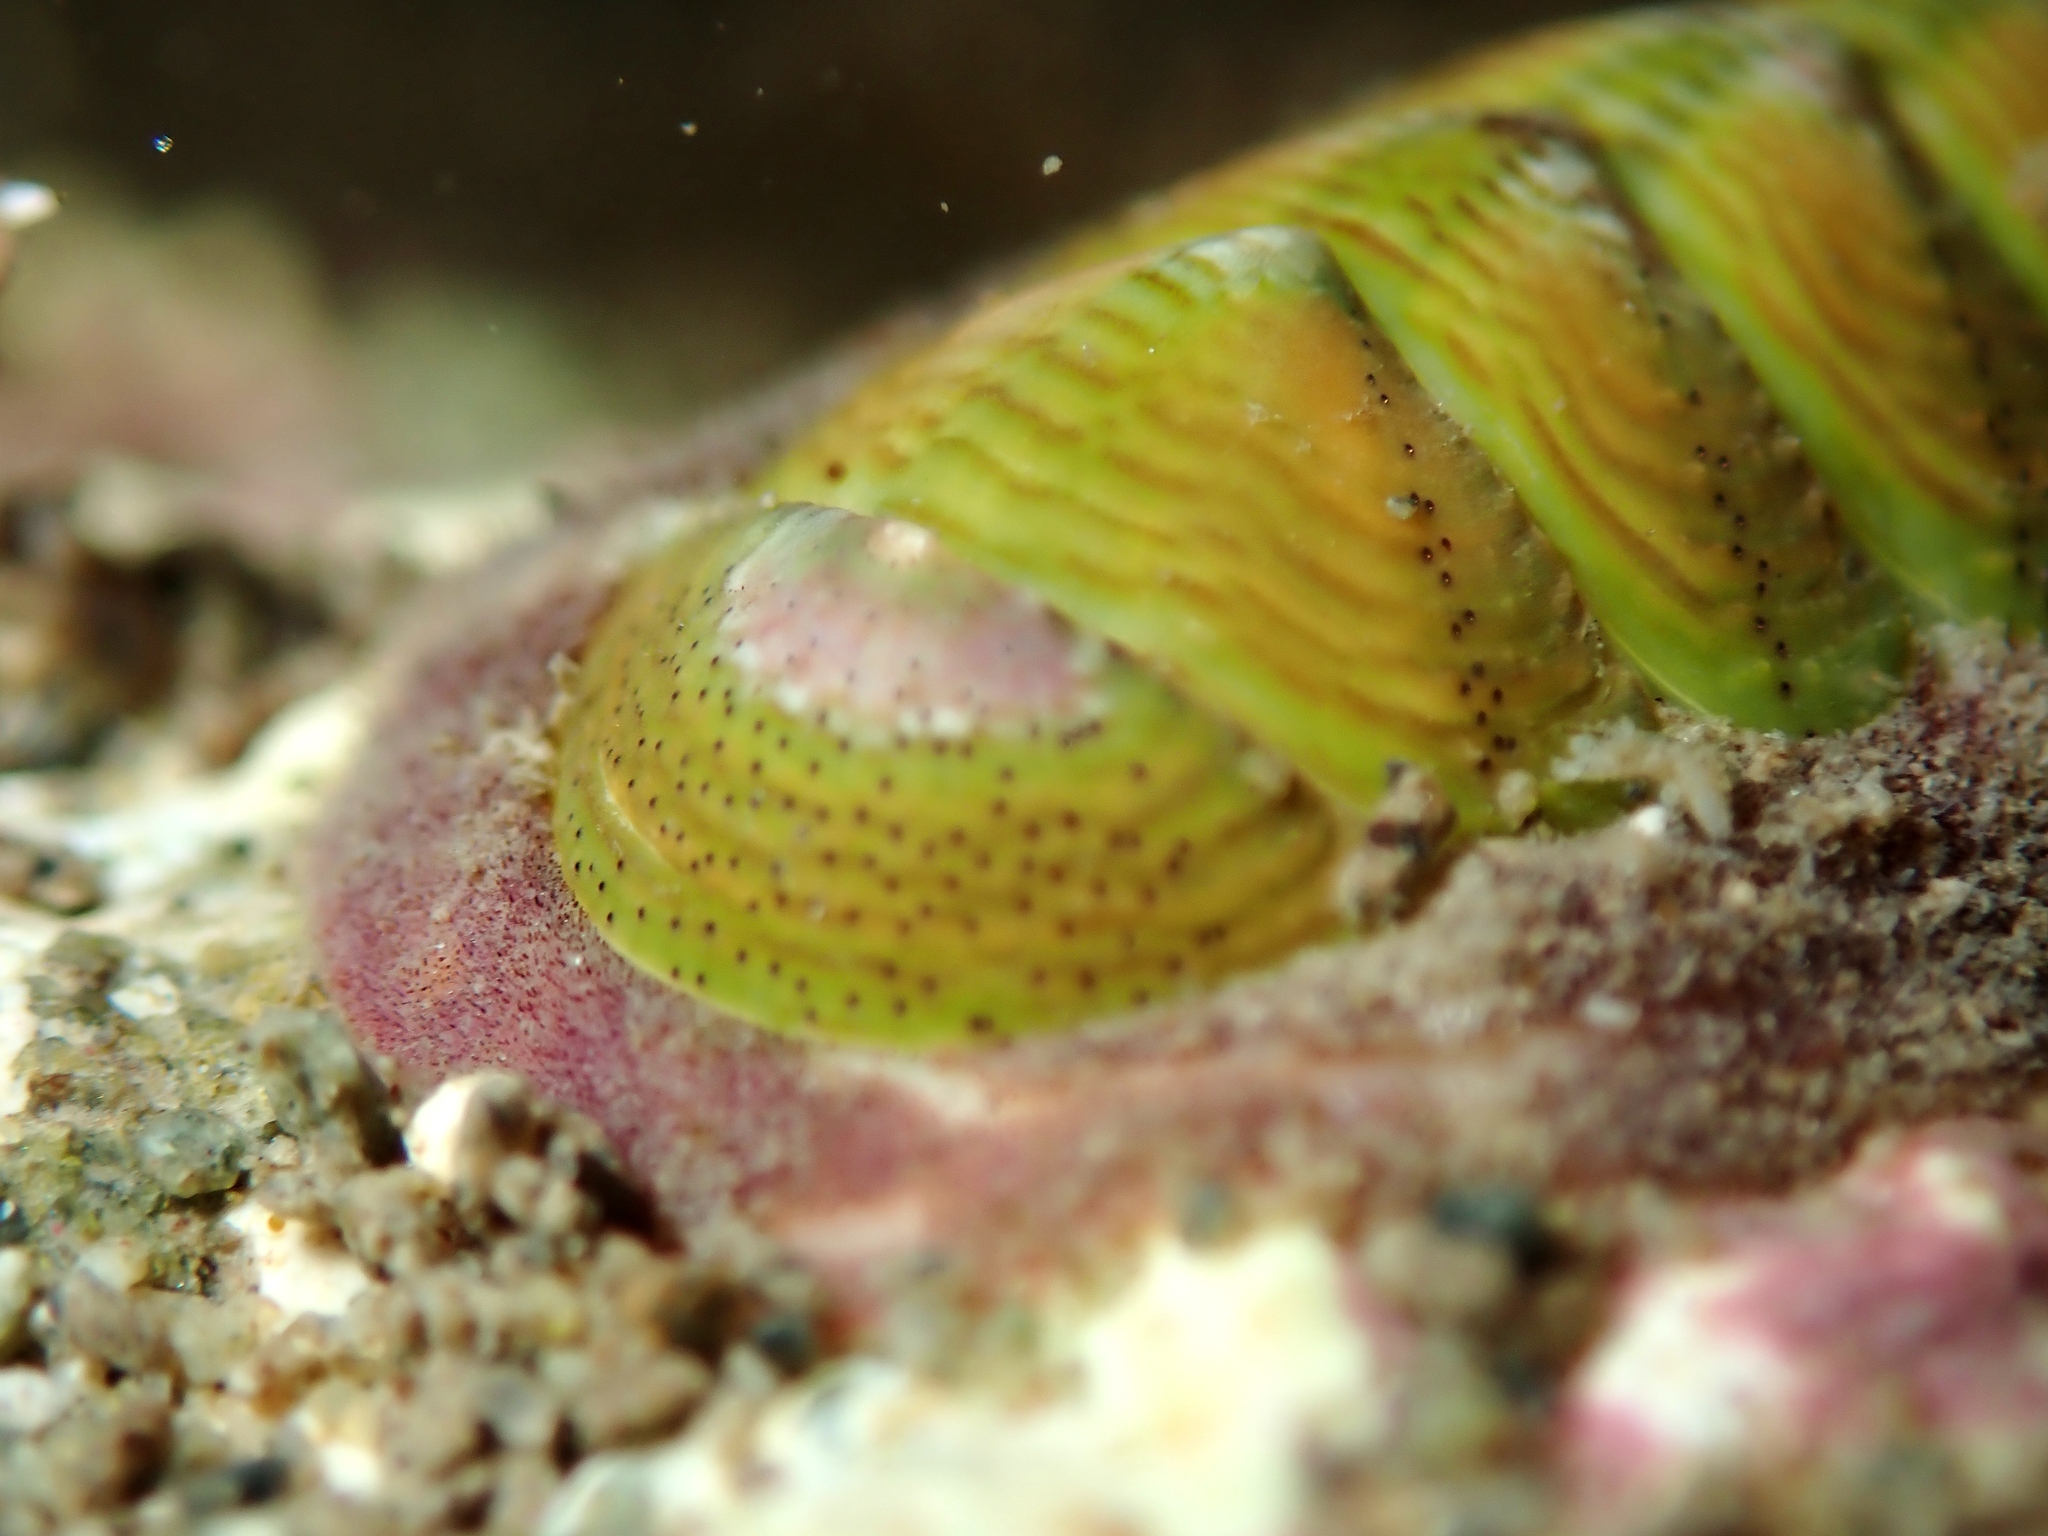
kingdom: Animalia
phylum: Mollusca
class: Polyplacophora
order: Chitonida
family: Chitonidae
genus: Onithochiton
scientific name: Onithochiton neglectus
